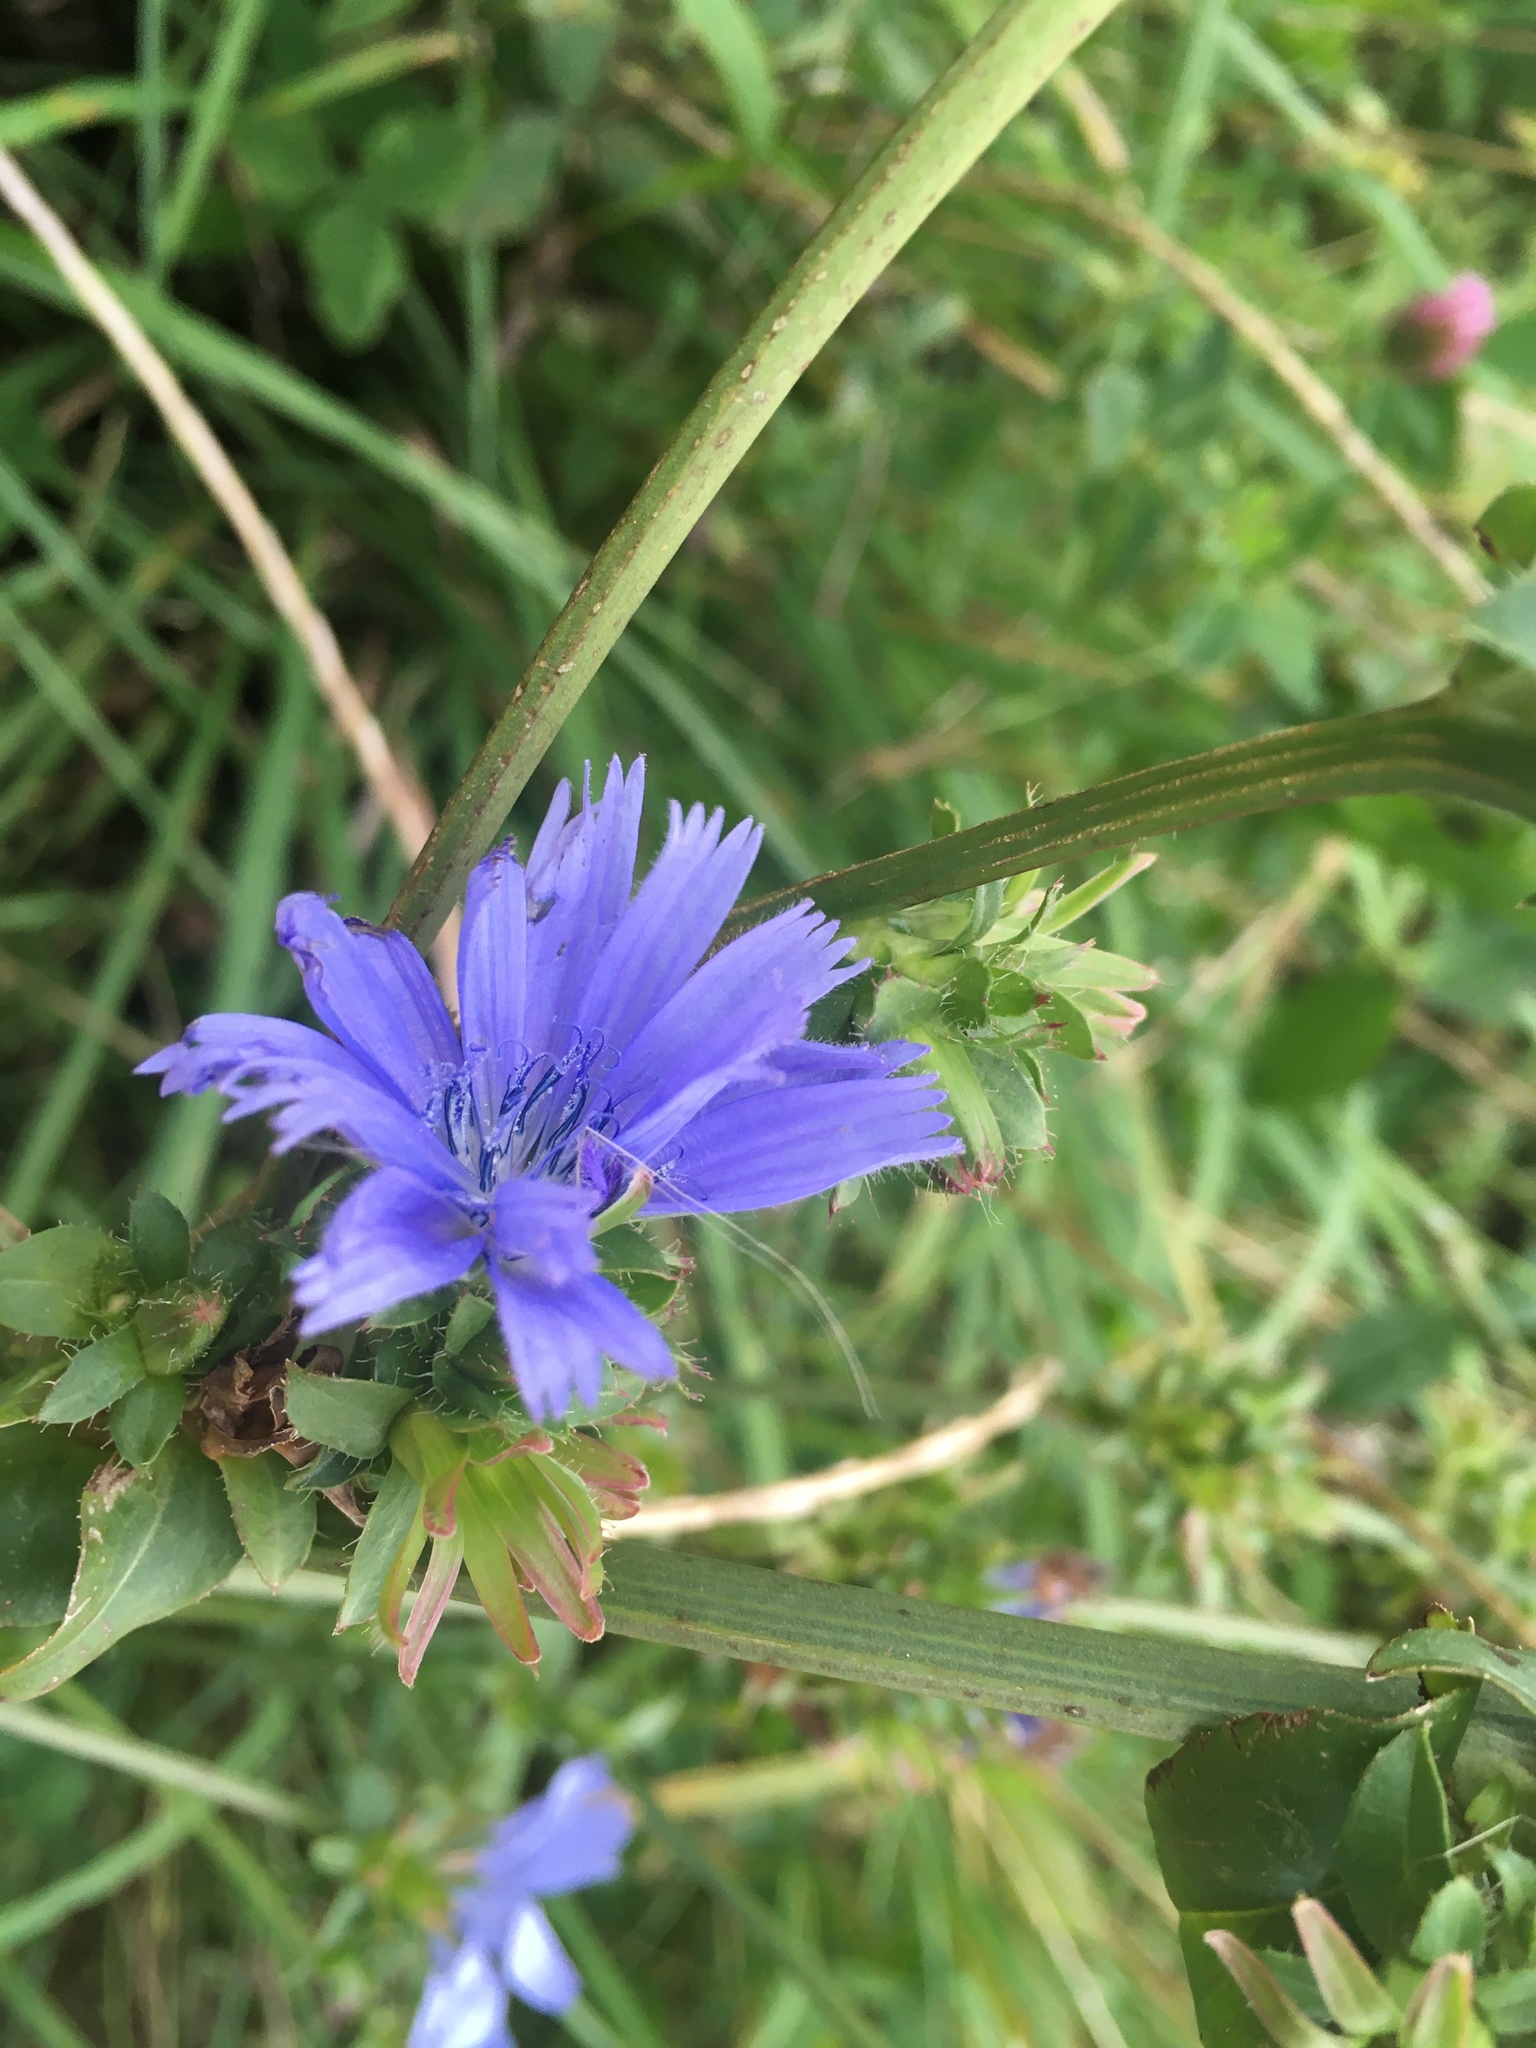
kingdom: Plantae
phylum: Tracheophyta
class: Magnoliopsida
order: Asterales
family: Asteraceae
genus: Cichorium
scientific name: Cichorium intybus
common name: Chicory
